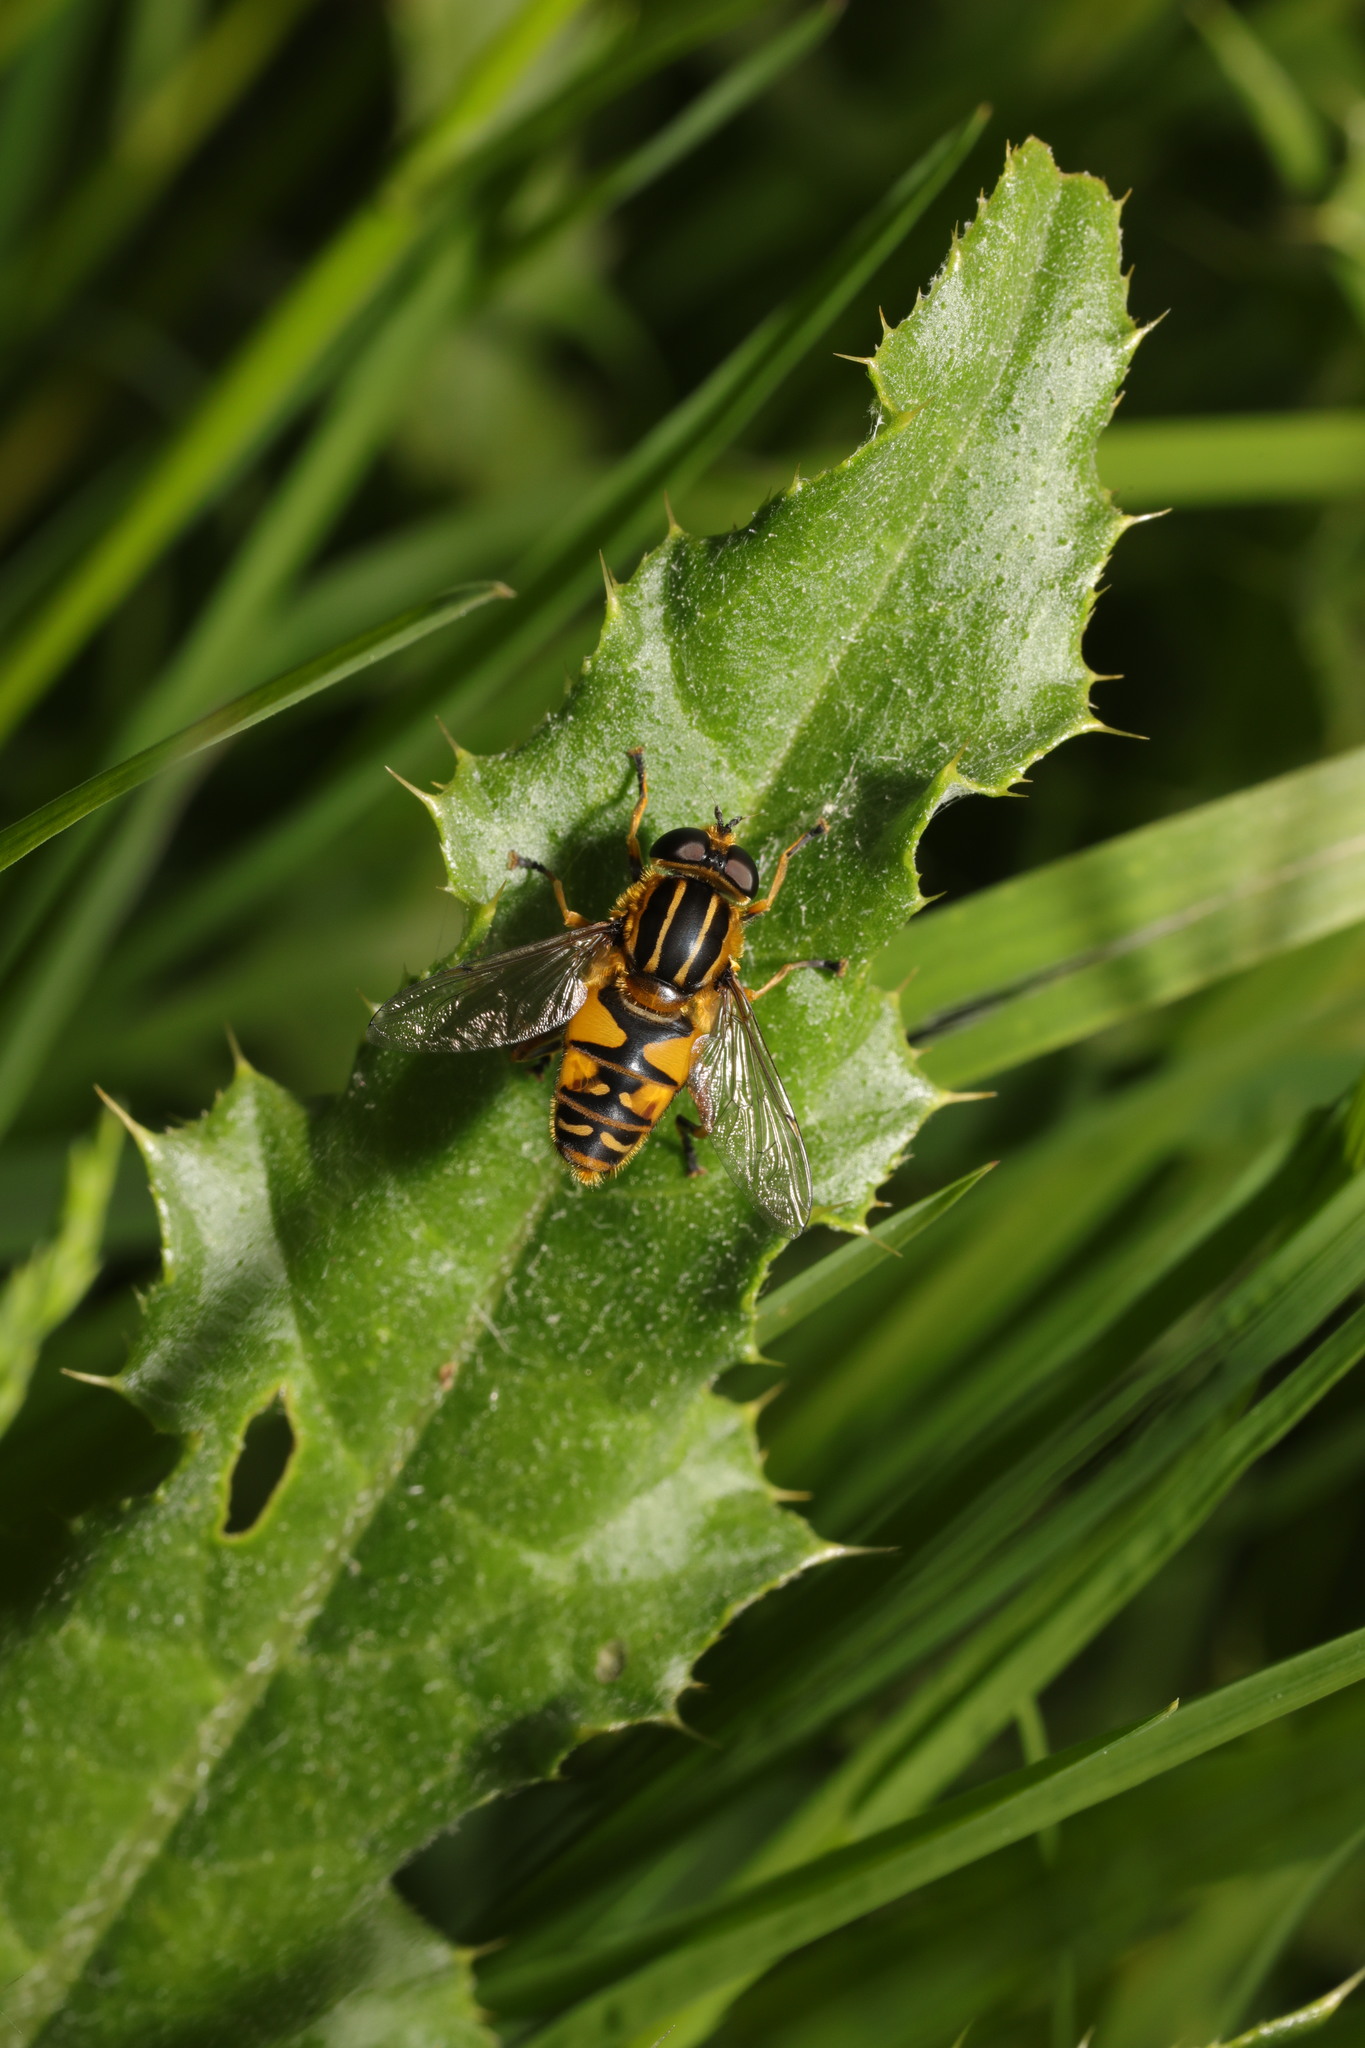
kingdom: Animalia
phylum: Arthropoda
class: Insecta
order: Diptera
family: Syrphidae
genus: Helophilus
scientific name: Helophilus pendulus
